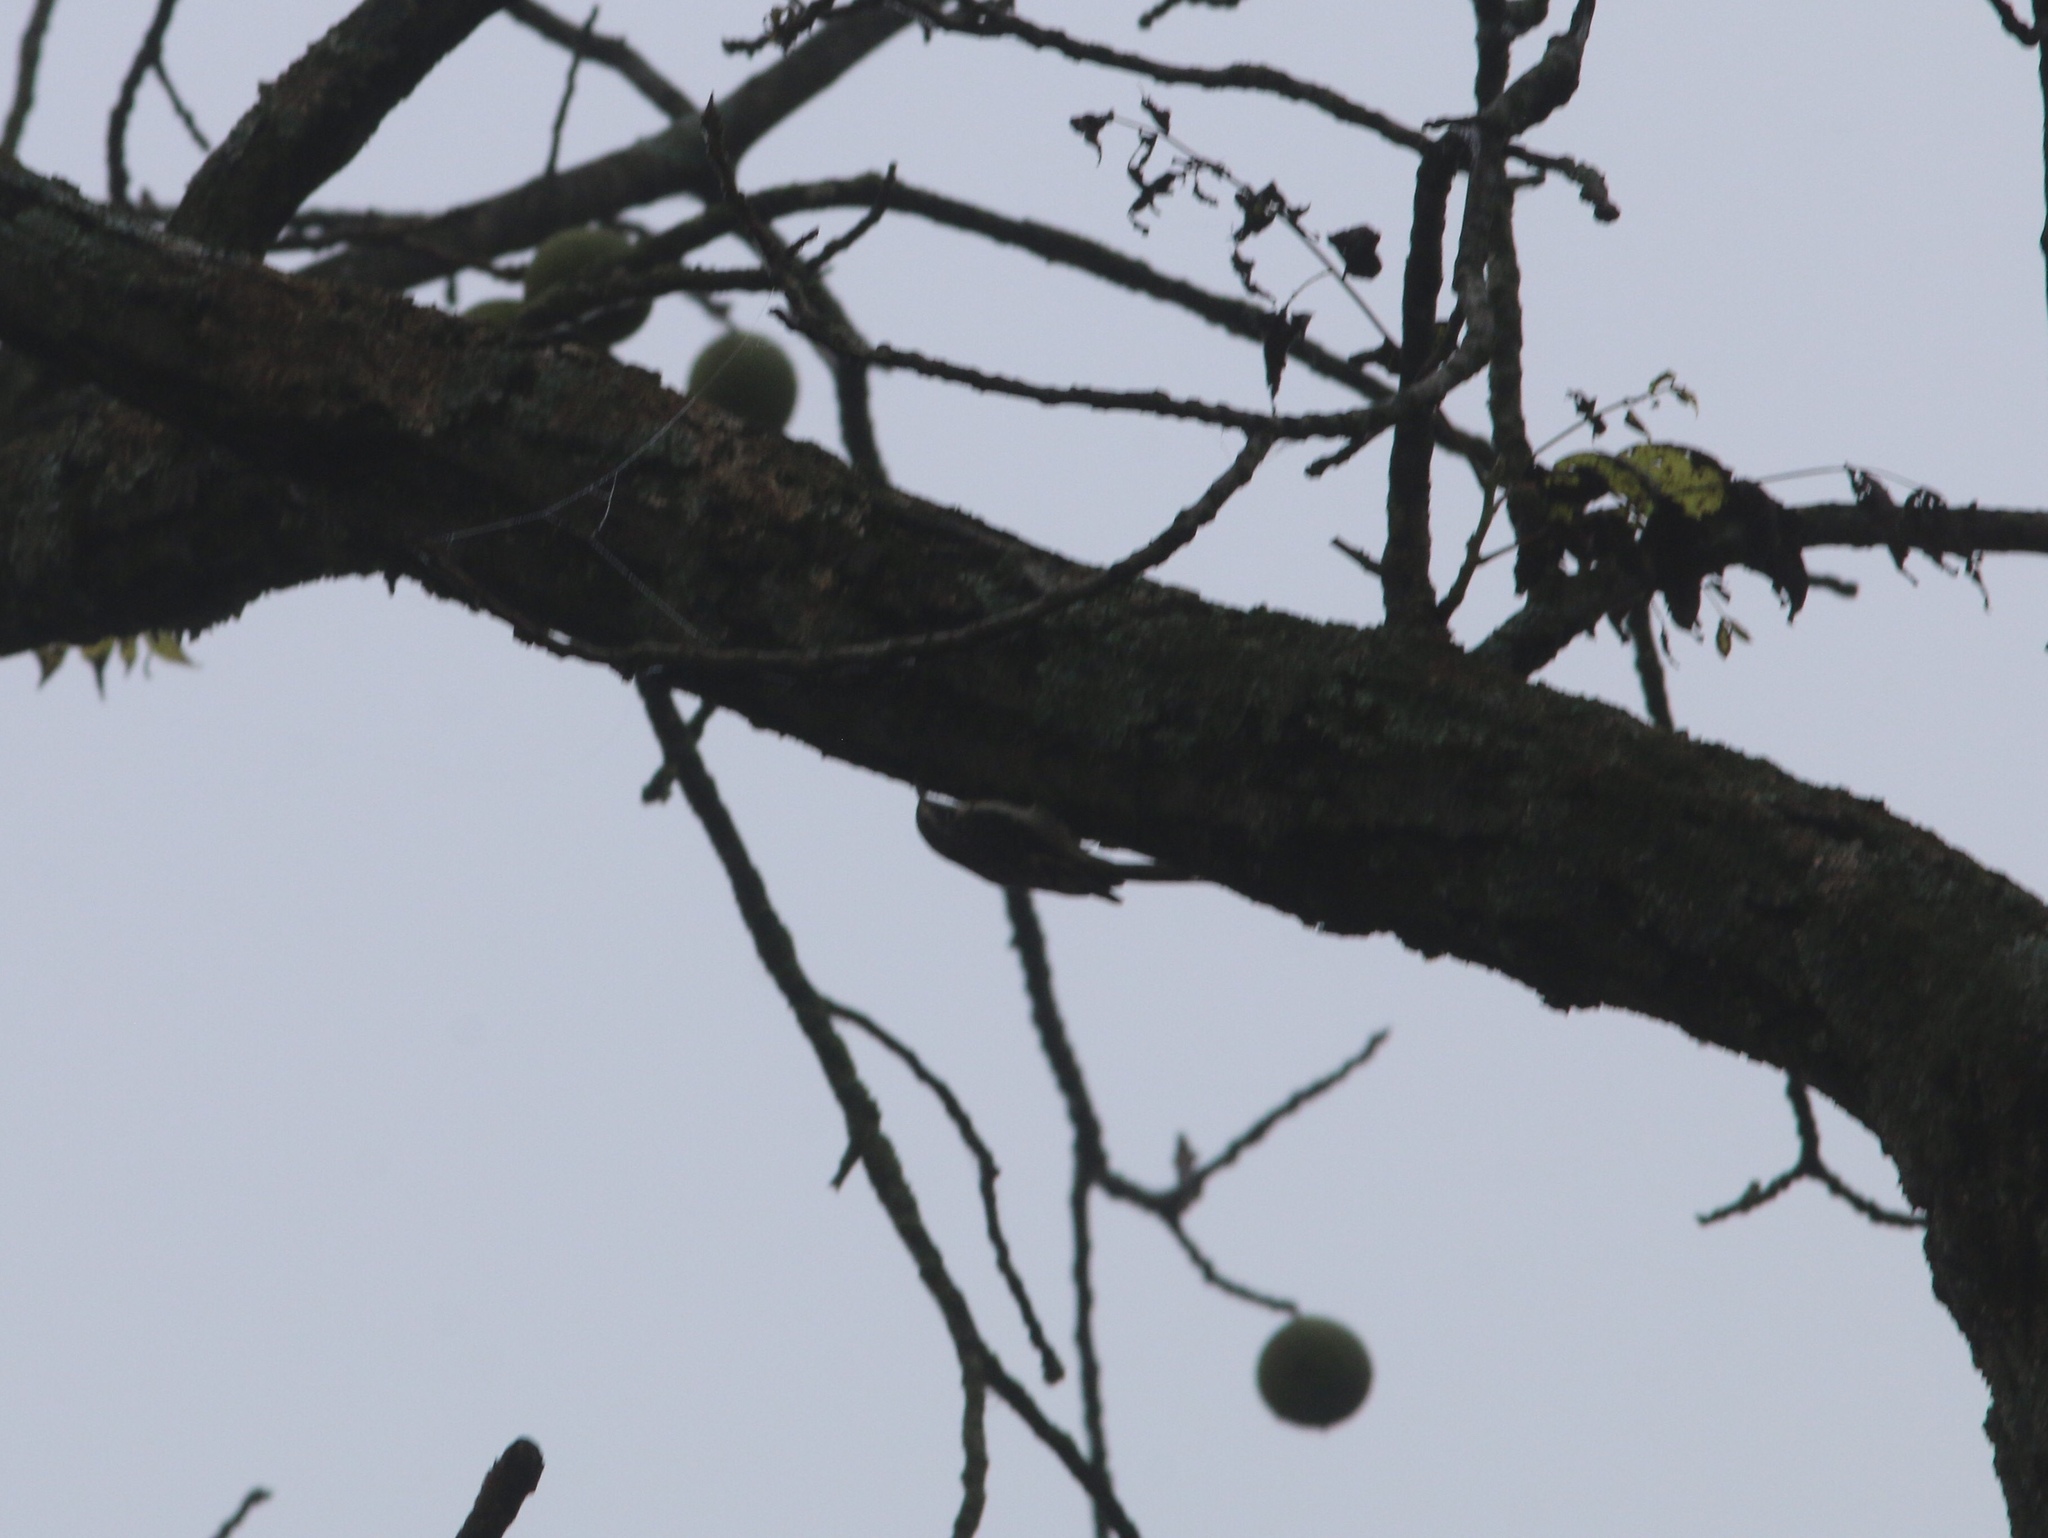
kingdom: Animalia
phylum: Chordata
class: Aves
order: Passeriformes
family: Certhiidae
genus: Certhia
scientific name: Certhia americana
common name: Brown creeper
